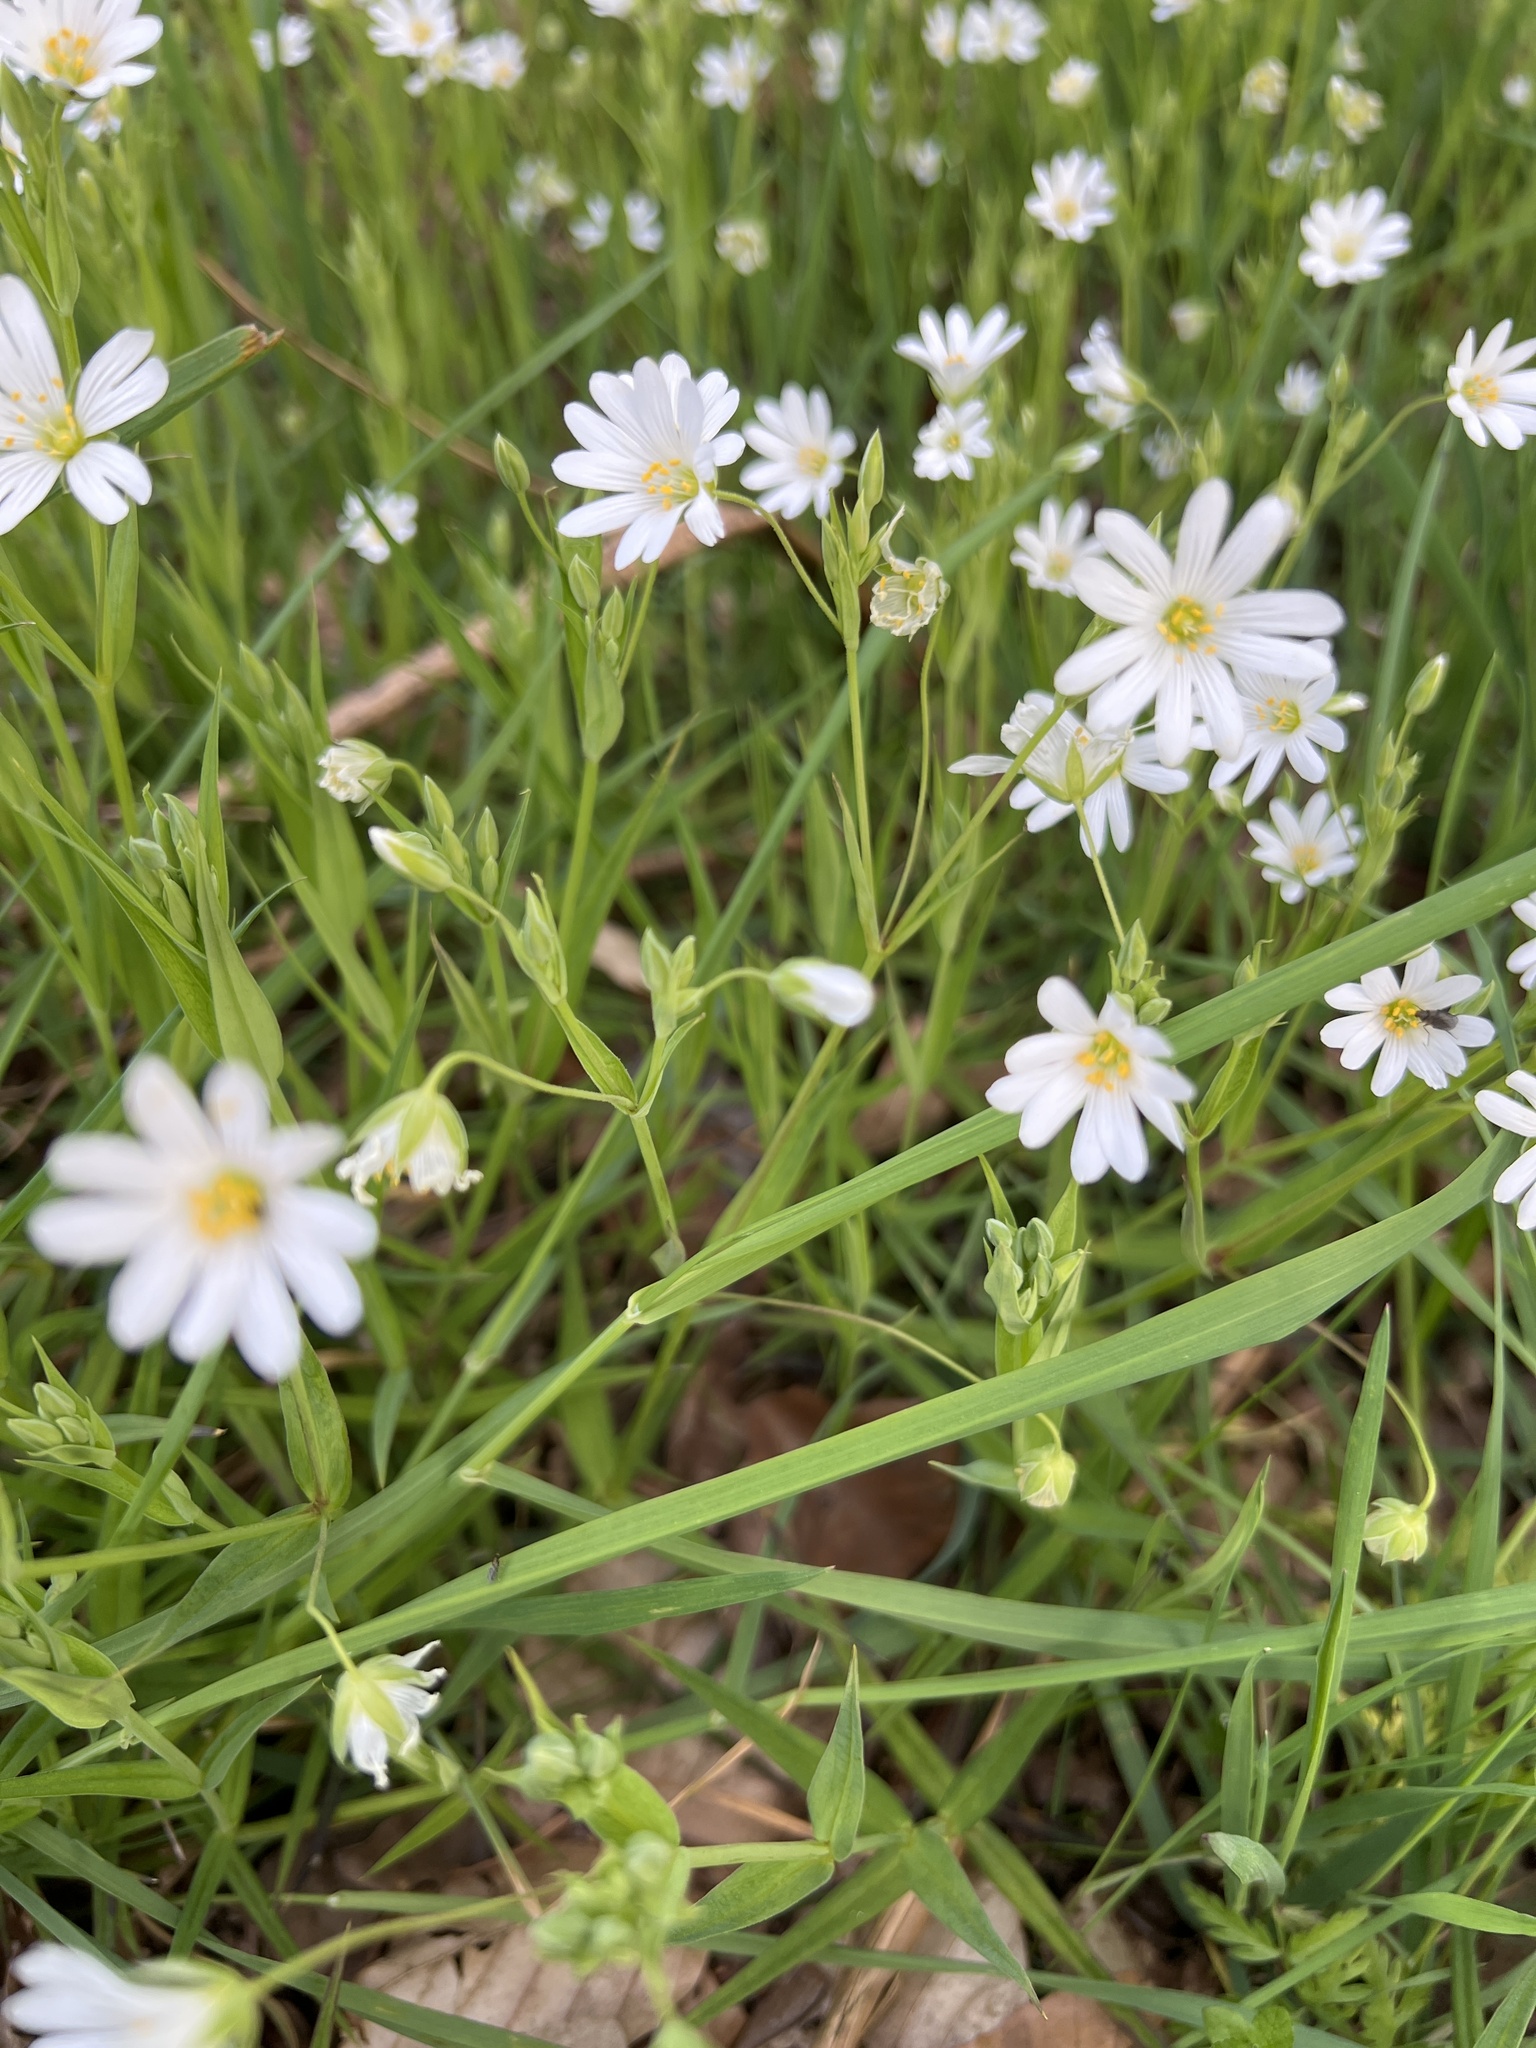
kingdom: Plantae
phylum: Tracheophyta
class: Magnoliopsida
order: Caryophyllales
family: Caryophyllaceae
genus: Rabelera
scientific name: Rabelera holostea
